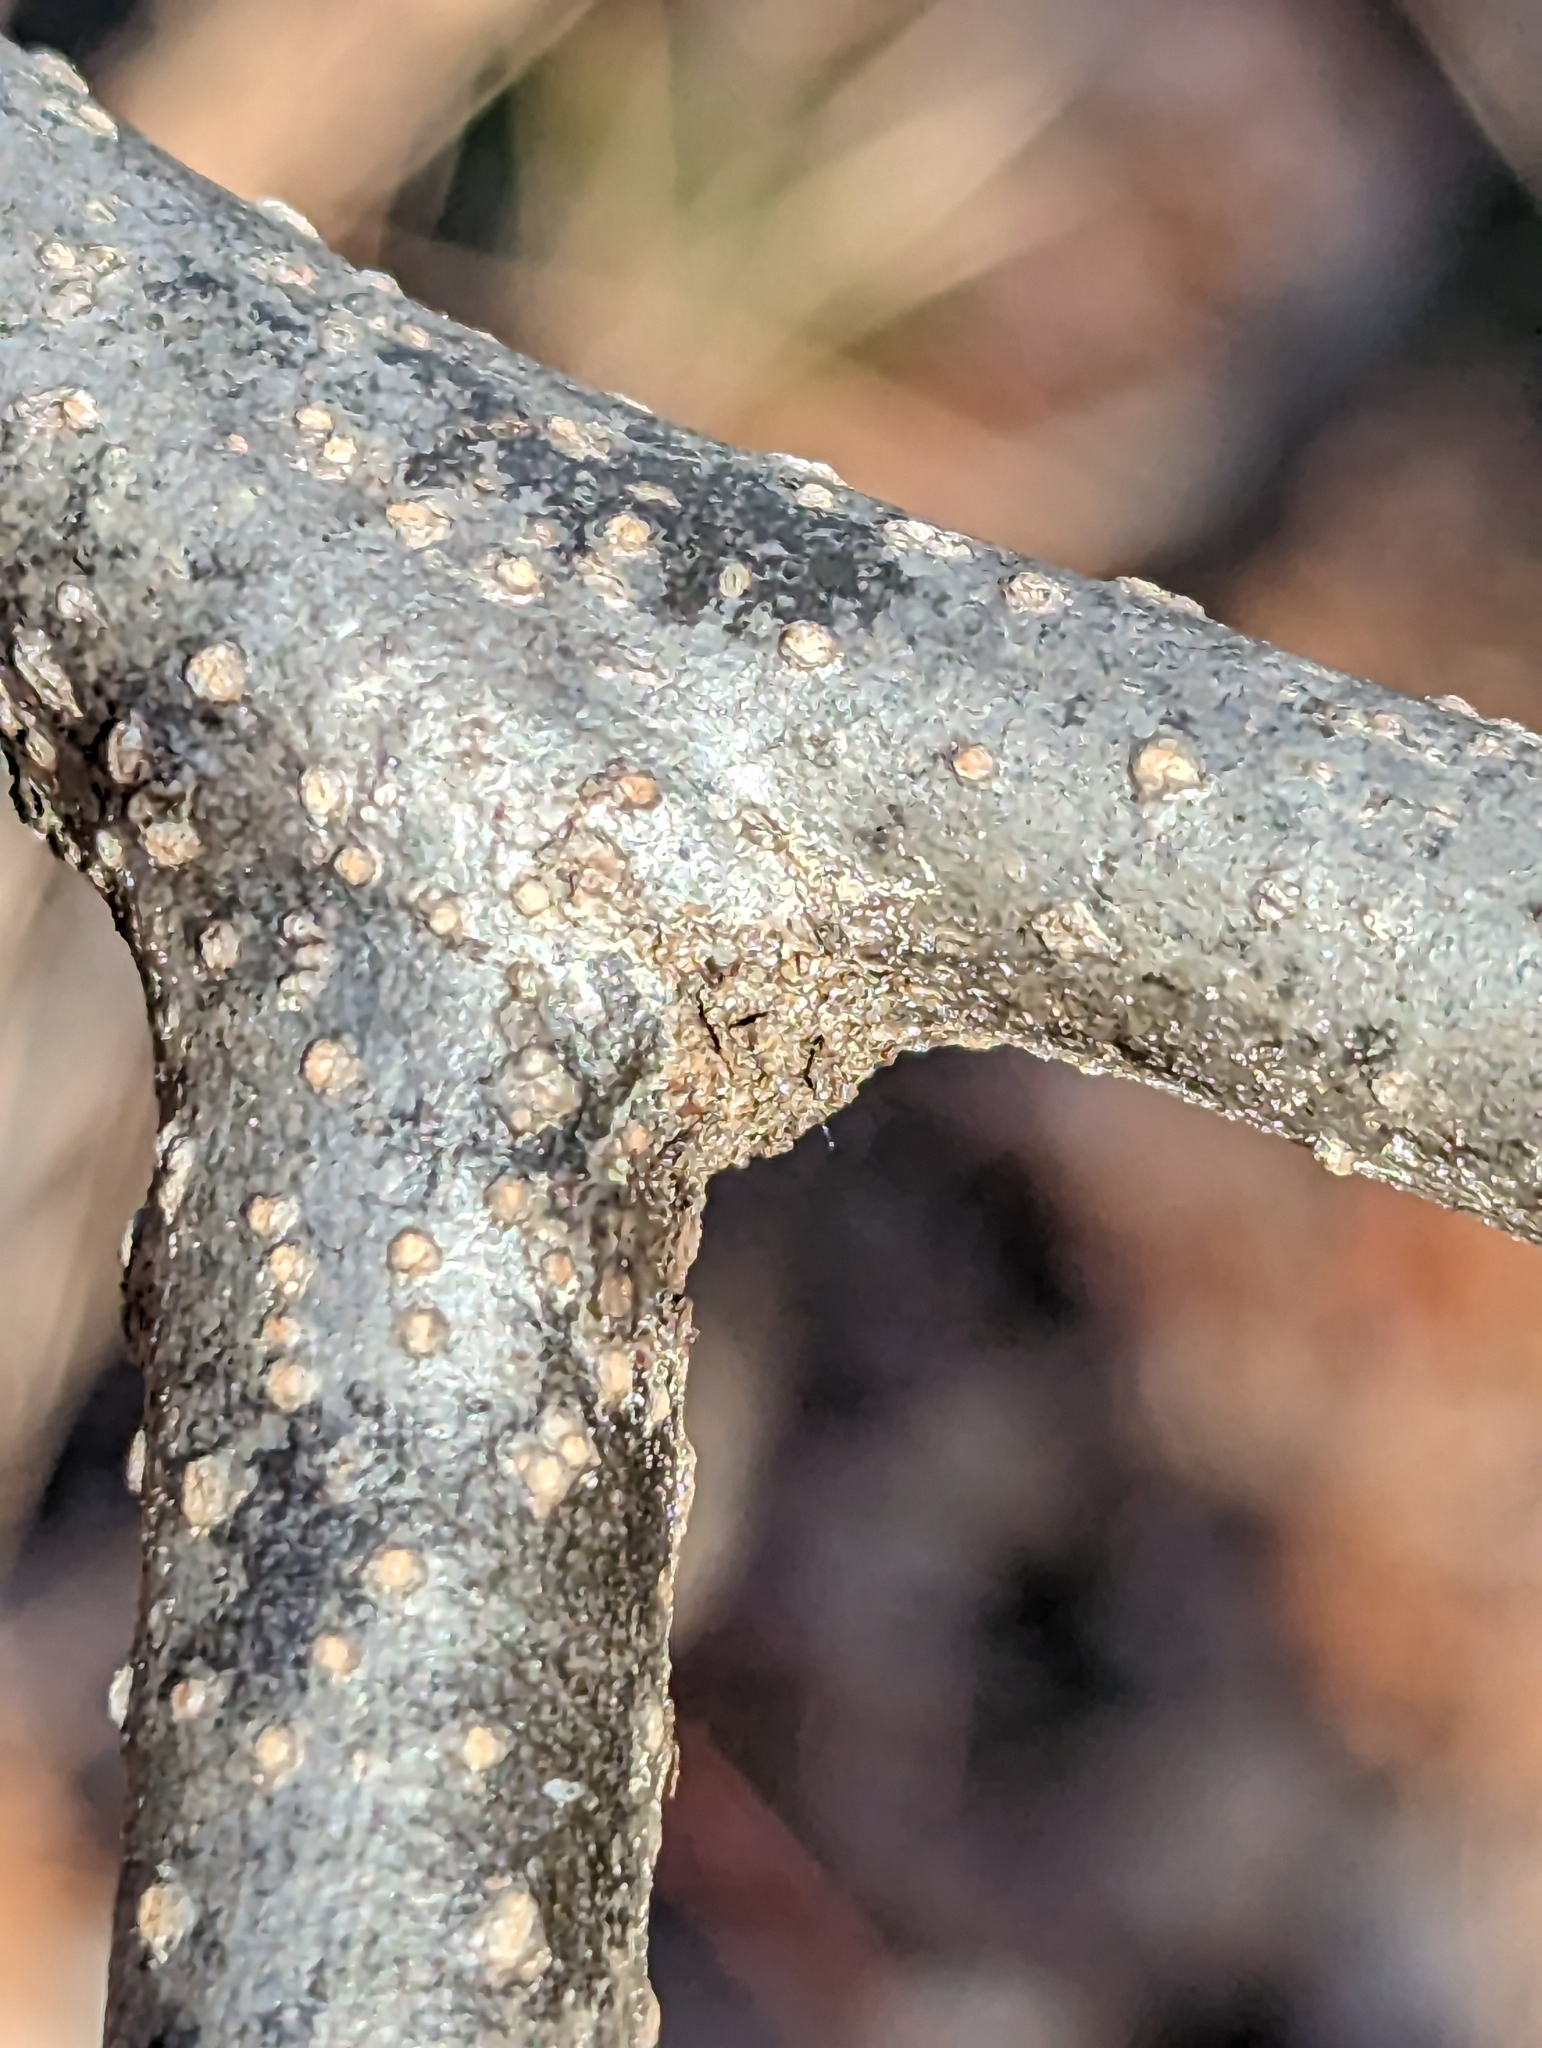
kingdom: Plantae
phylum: Tracheophyta
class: Magnoliopsida
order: Laurales
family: Lauraceae
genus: Lindera
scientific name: Lindera benzoin
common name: Spicebush
